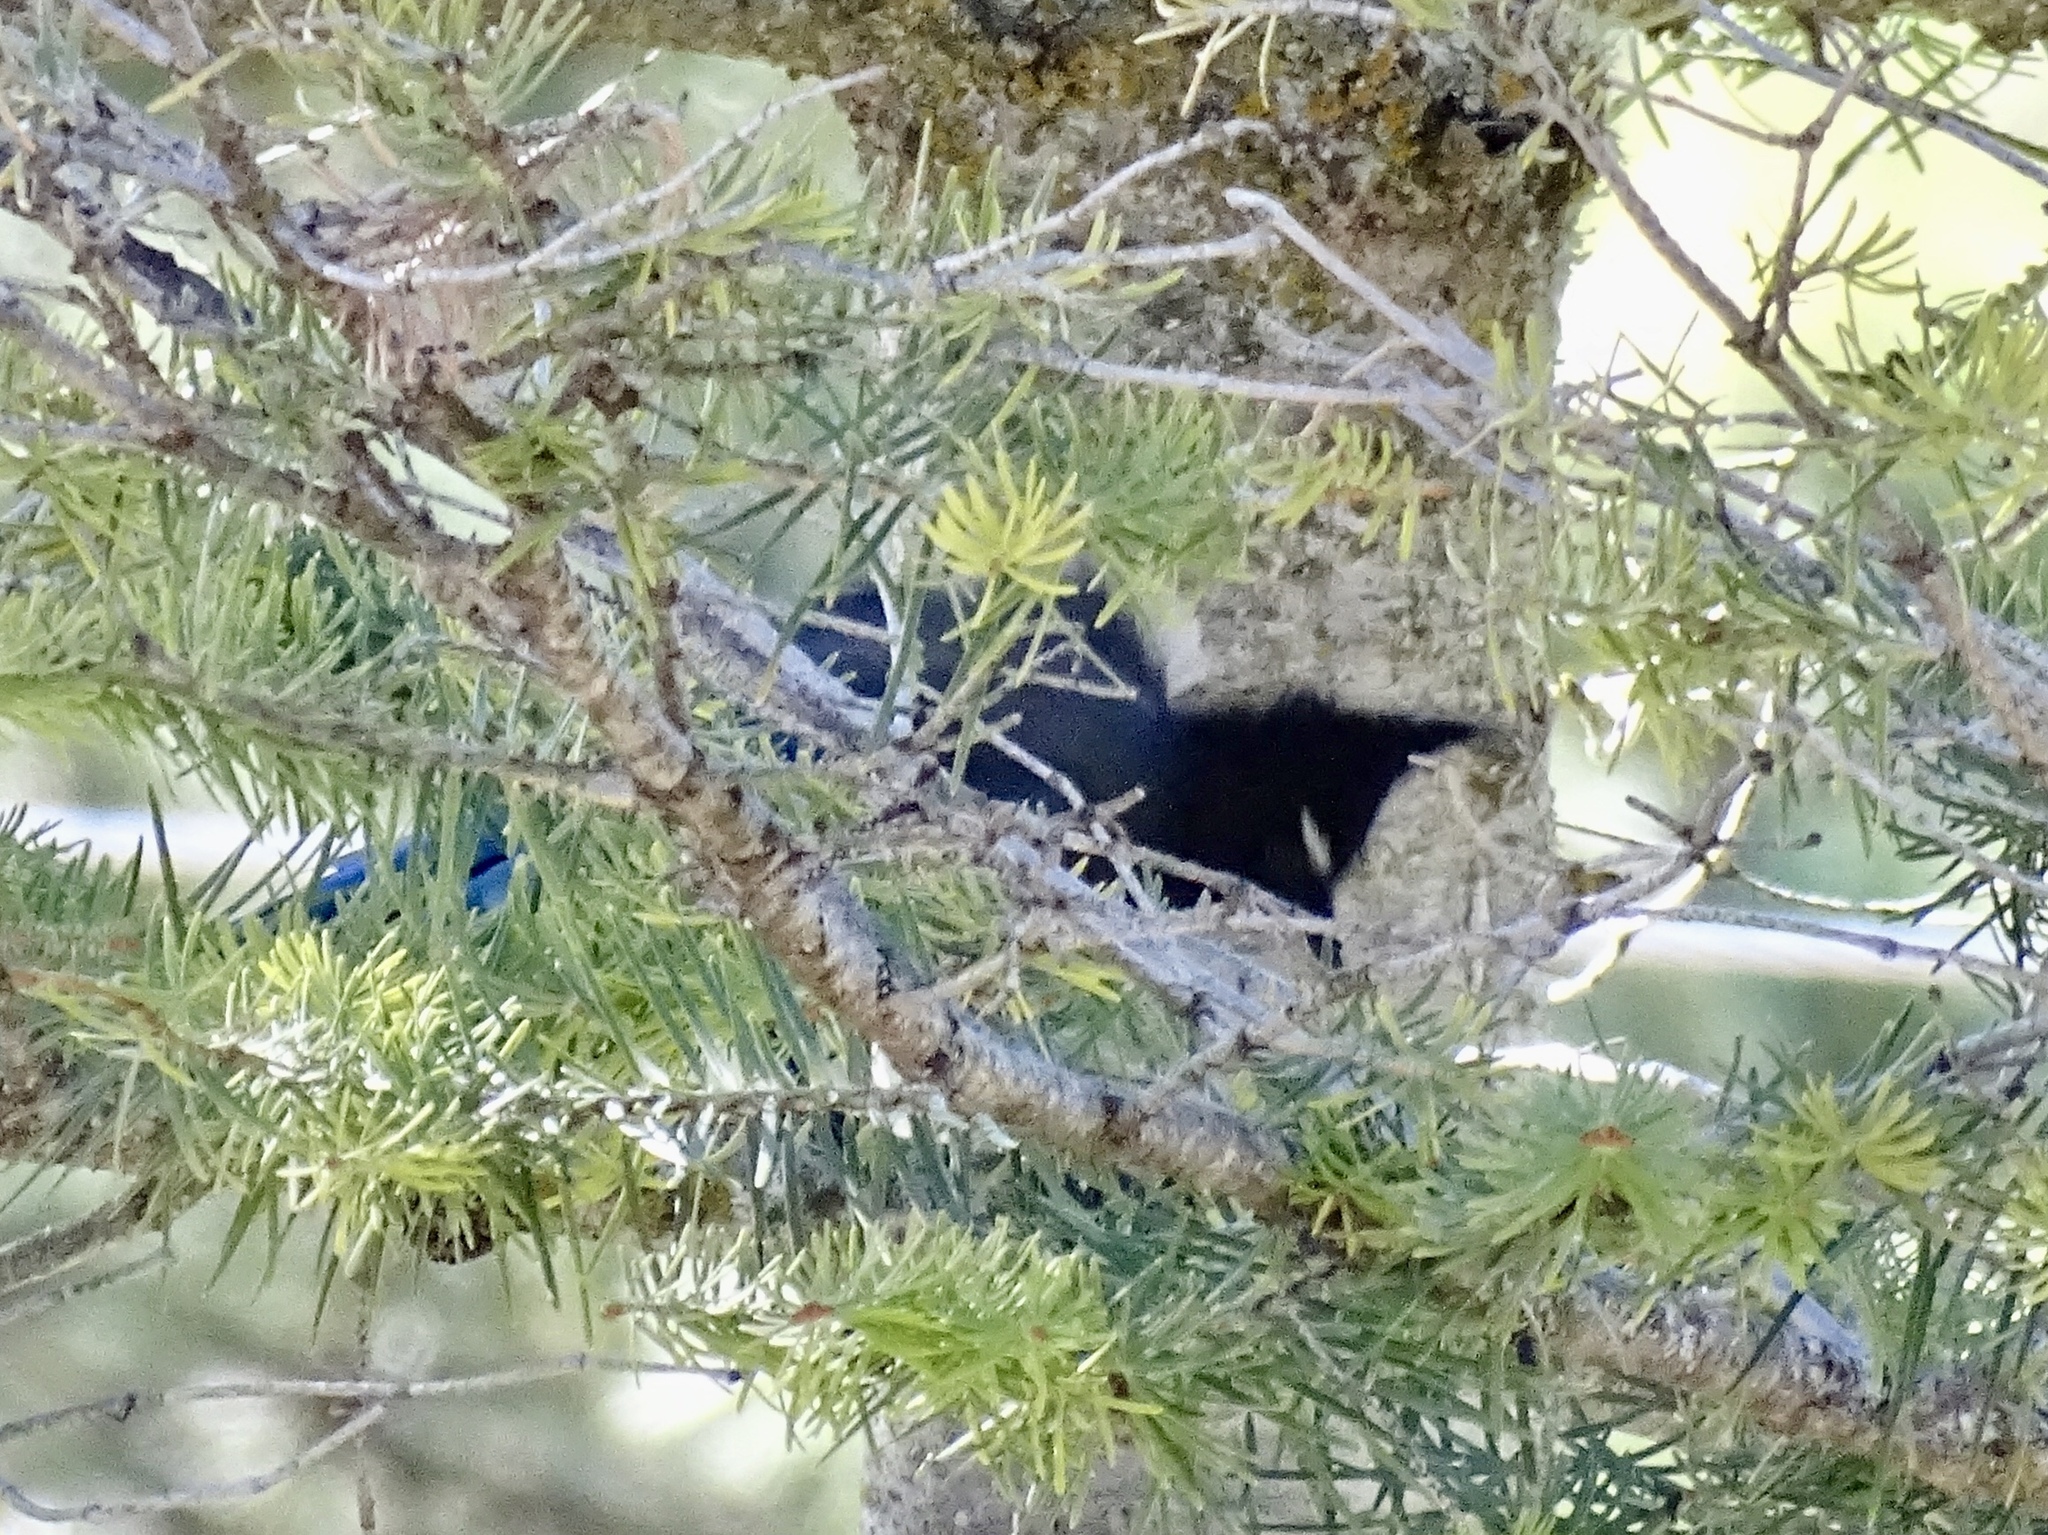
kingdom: Animalia
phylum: Chordata
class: Aves
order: Passeriformes
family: Corvidae
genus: Cyanocitta
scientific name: Cyanocitta stelleri
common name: Steller's jay
